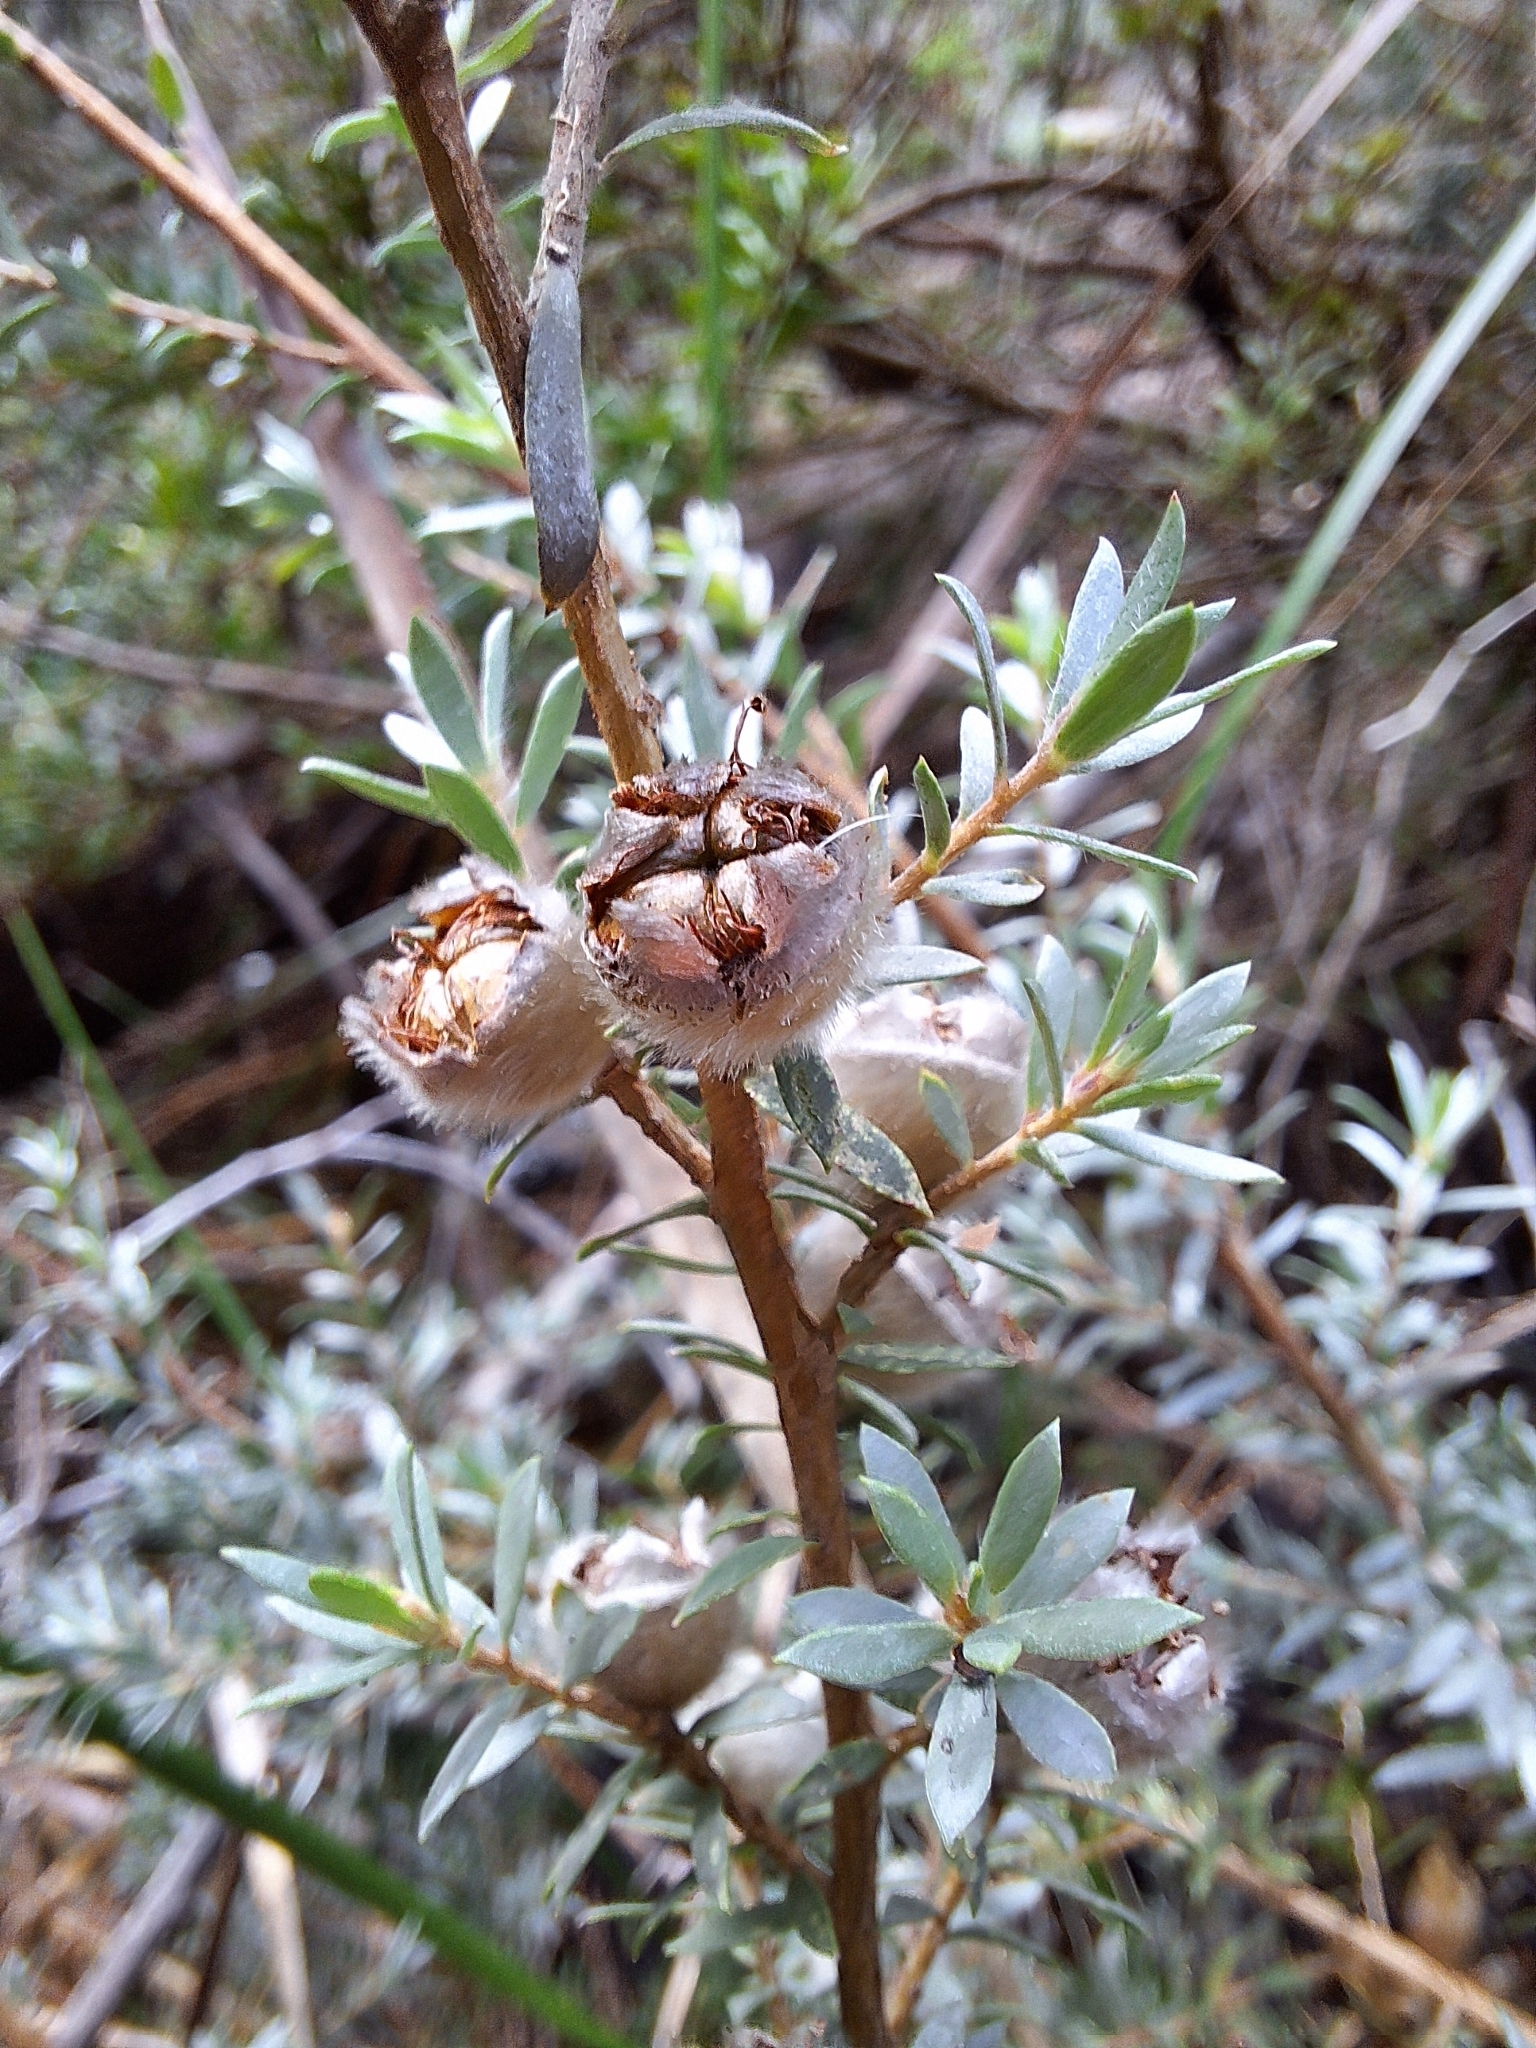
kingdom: Plantae
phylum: Tracheophyta
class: Magnoliopsida
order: Myrtales
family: Myrtaceae
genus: Leptospermum
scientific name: Leptospermum lanigerum
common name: Woolly tea-tree
